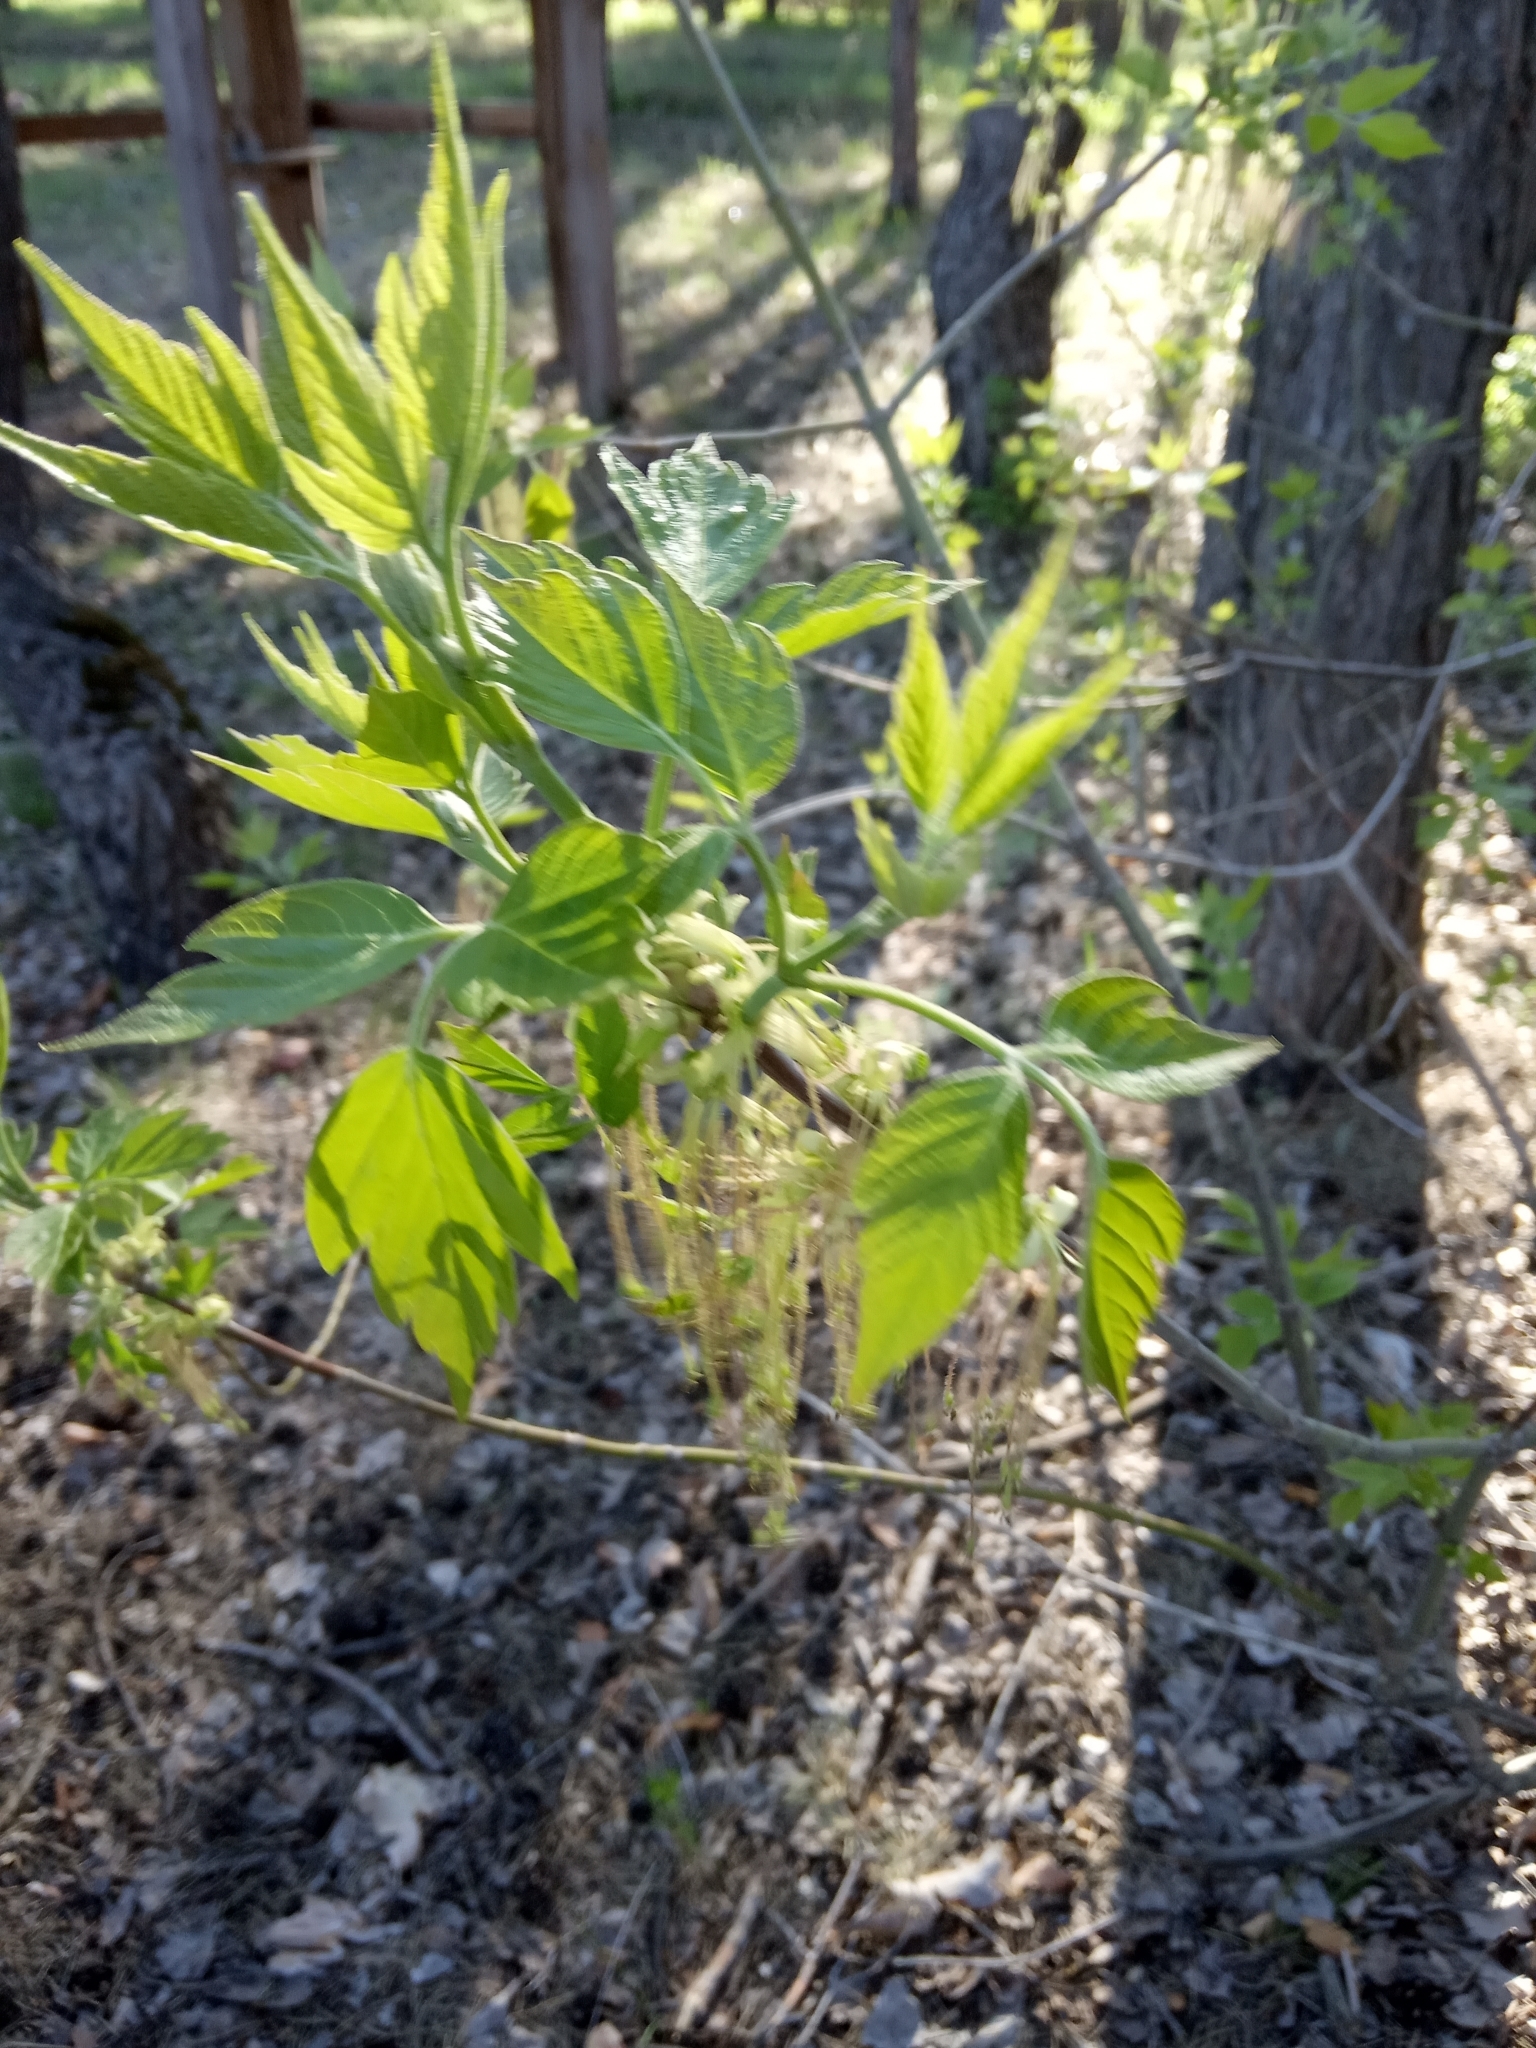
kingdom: Plantae
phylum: Tracheophyta
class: Magnoliopsida
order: Sapindales
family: Sapindaceae
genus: Acer
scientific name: Acer negundo
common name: Ashleaf maple
